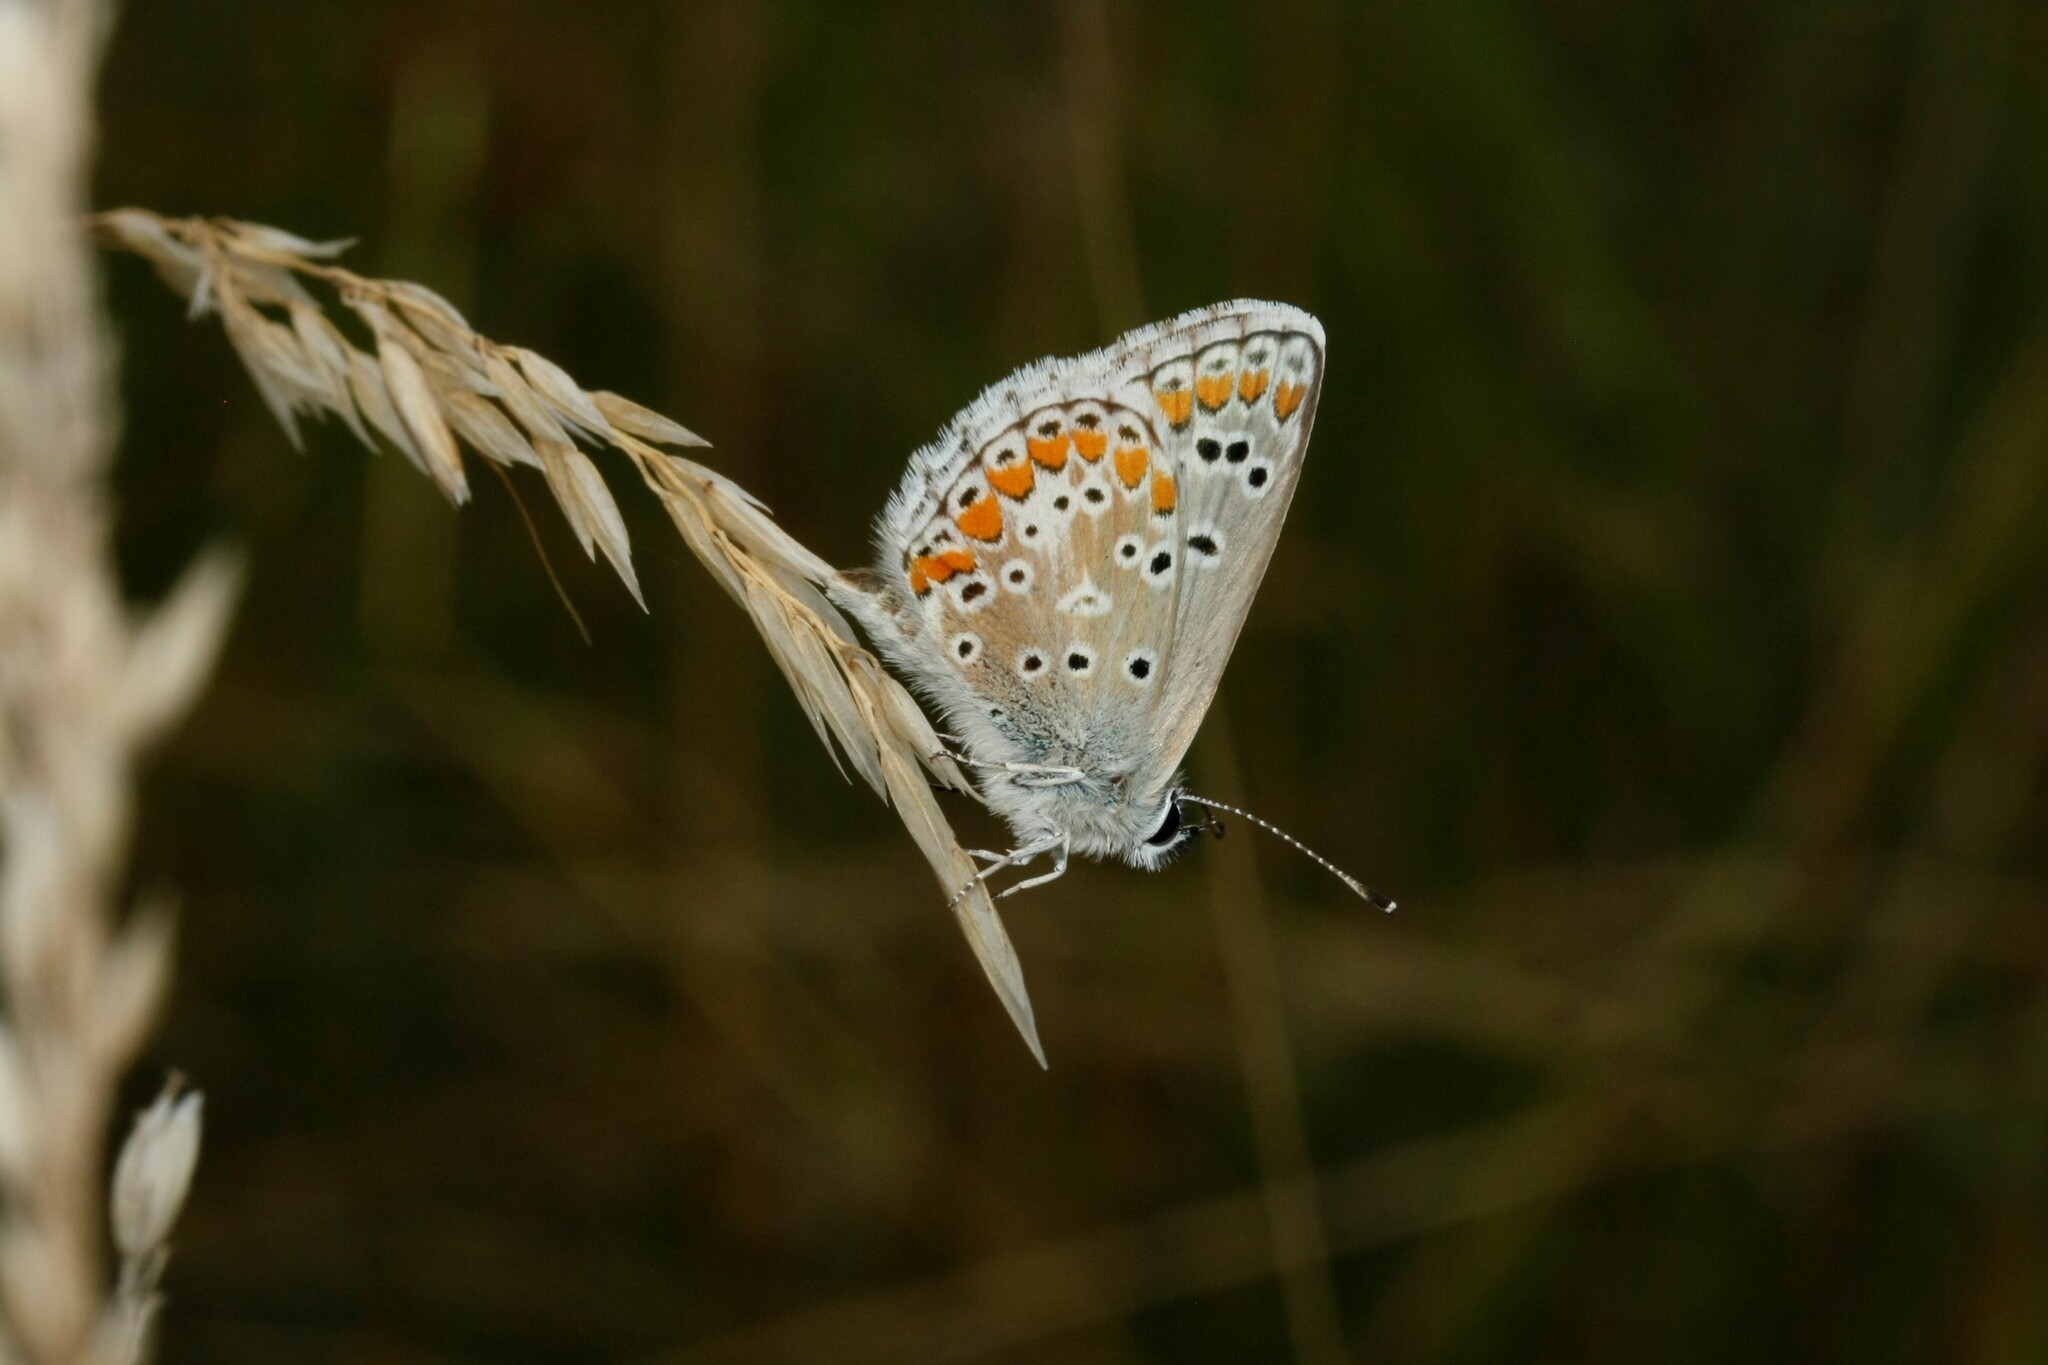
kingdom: Animalia
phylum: Arthropoda
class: Insecta
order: Lepidoptera
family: Lycaenidae
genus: Aricia
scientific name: Aricia agestis
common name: Brown argus
